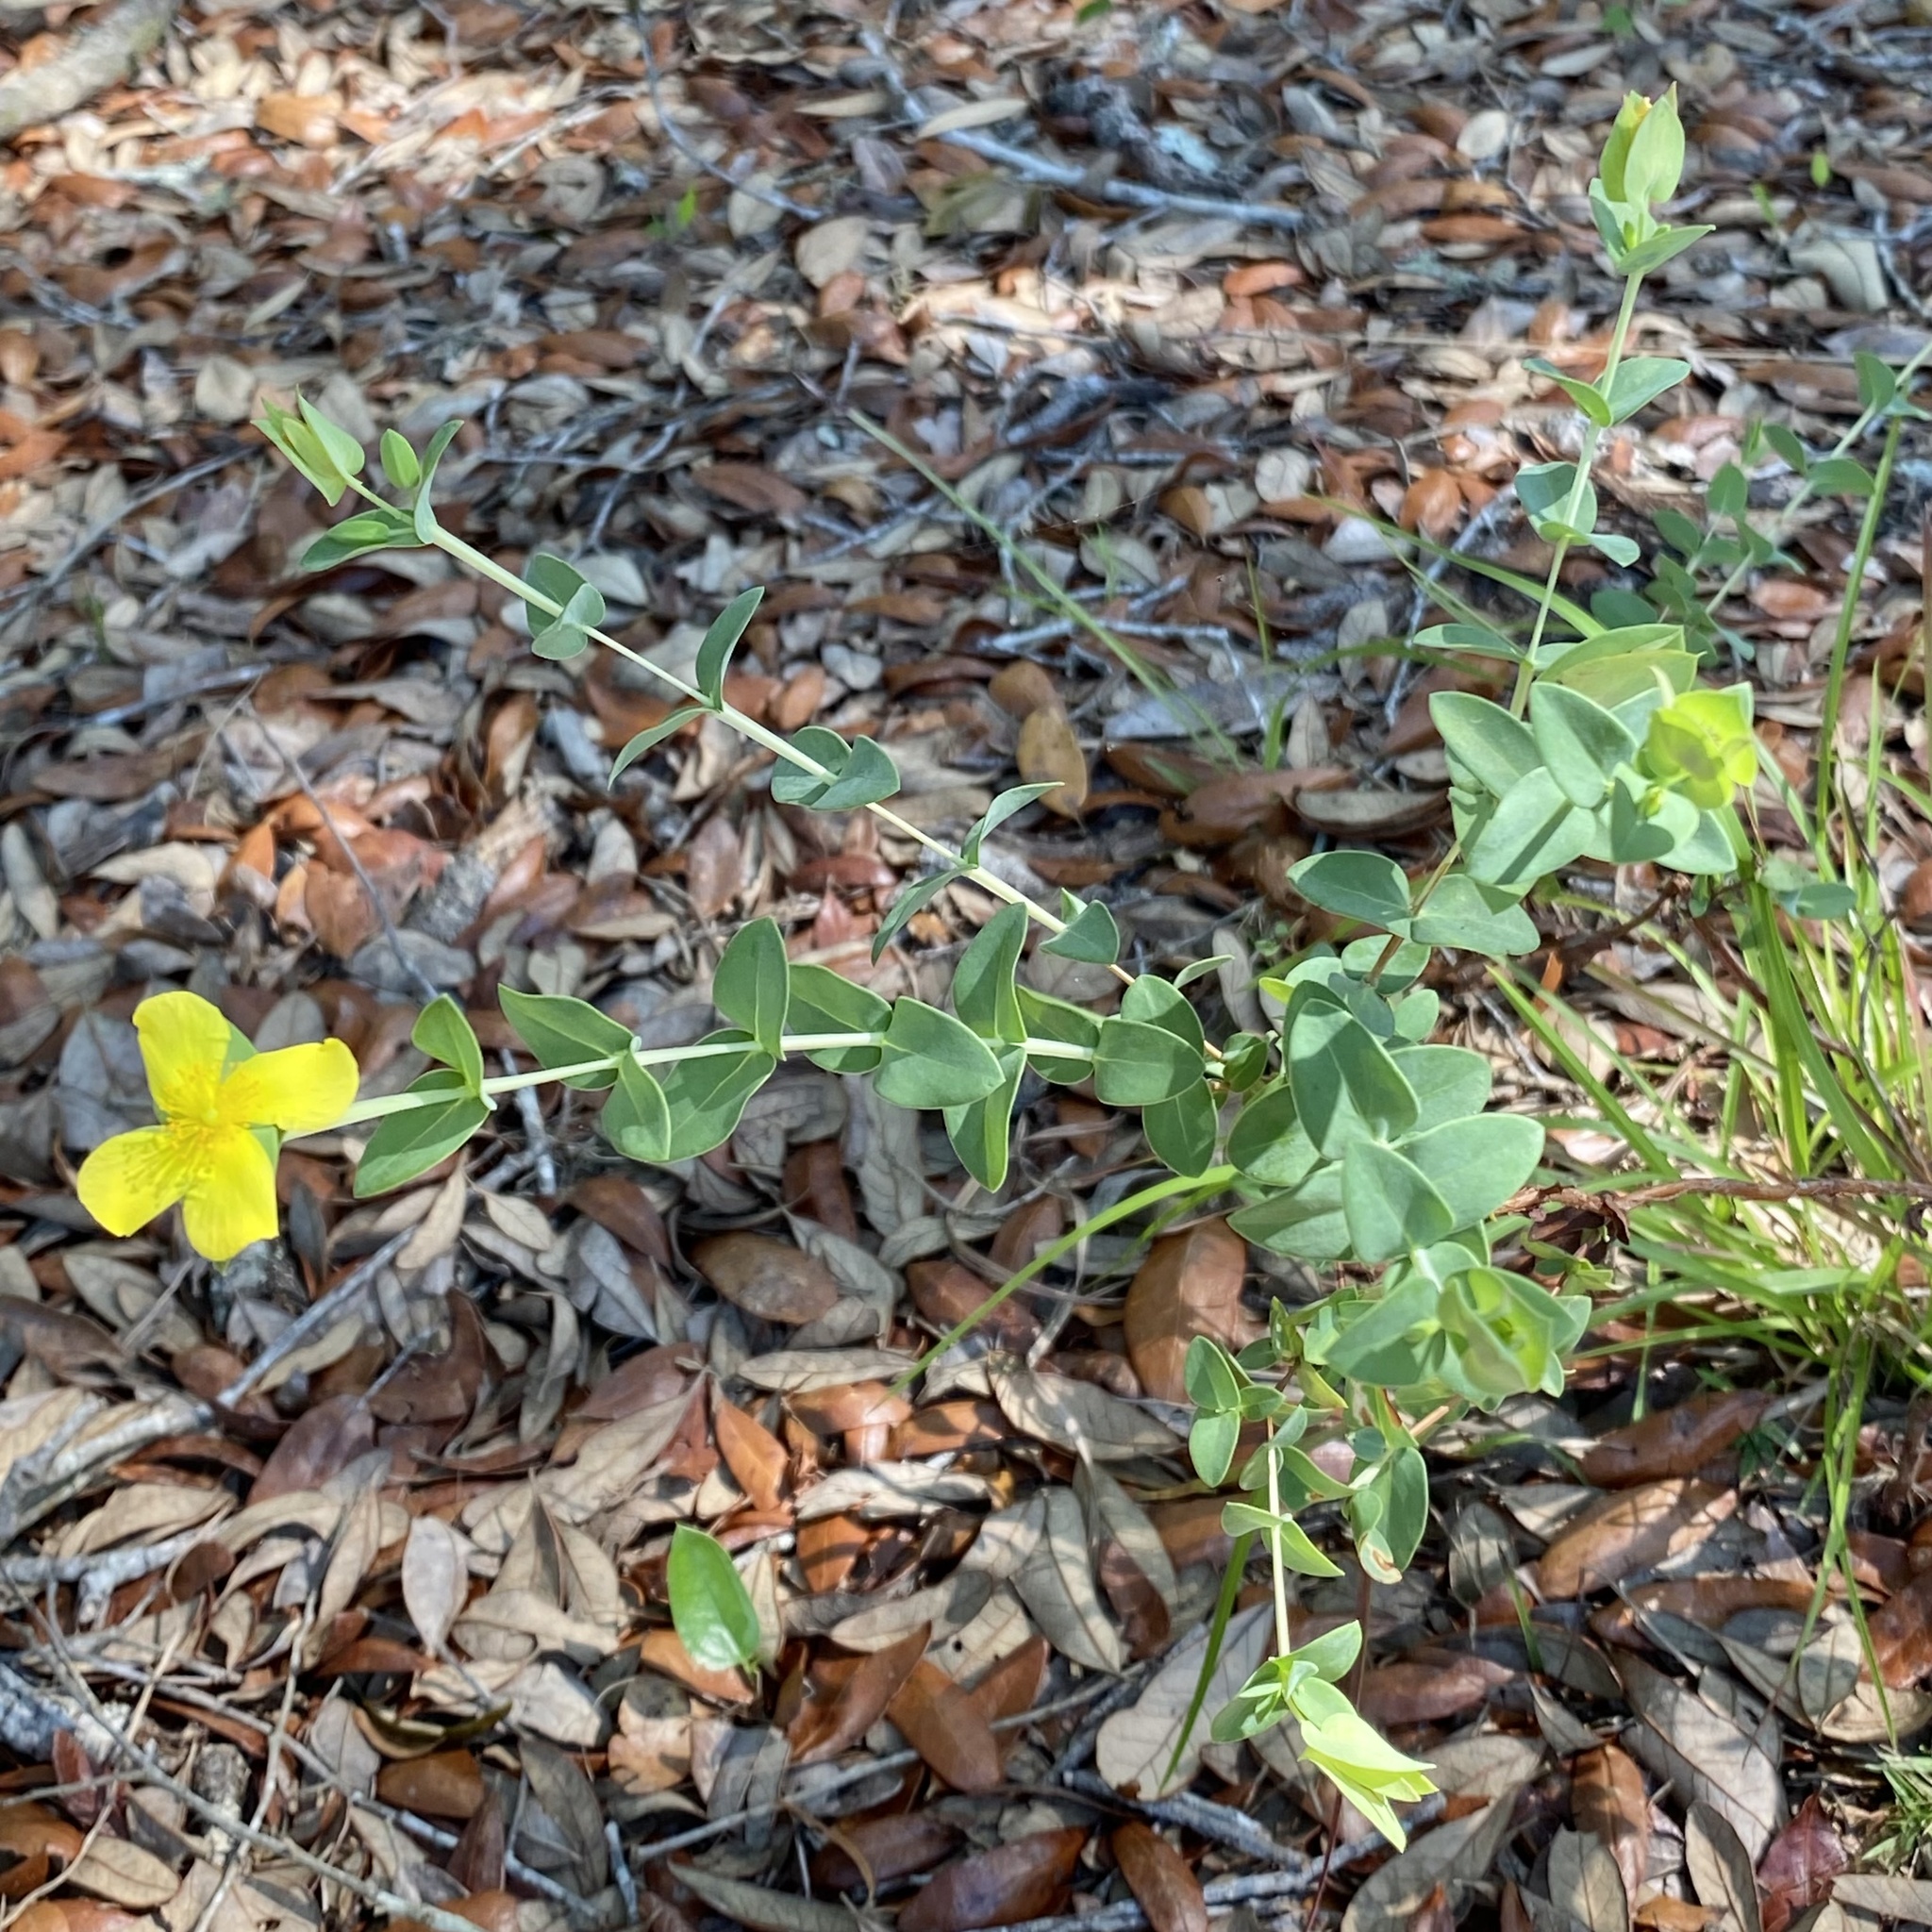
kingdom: Plantae
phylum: Tracheophyta
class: Magnoliopsida
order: Malpighiales
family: Hypericaceae
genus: Hypericum
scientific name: Hypericum tetrapetalum
